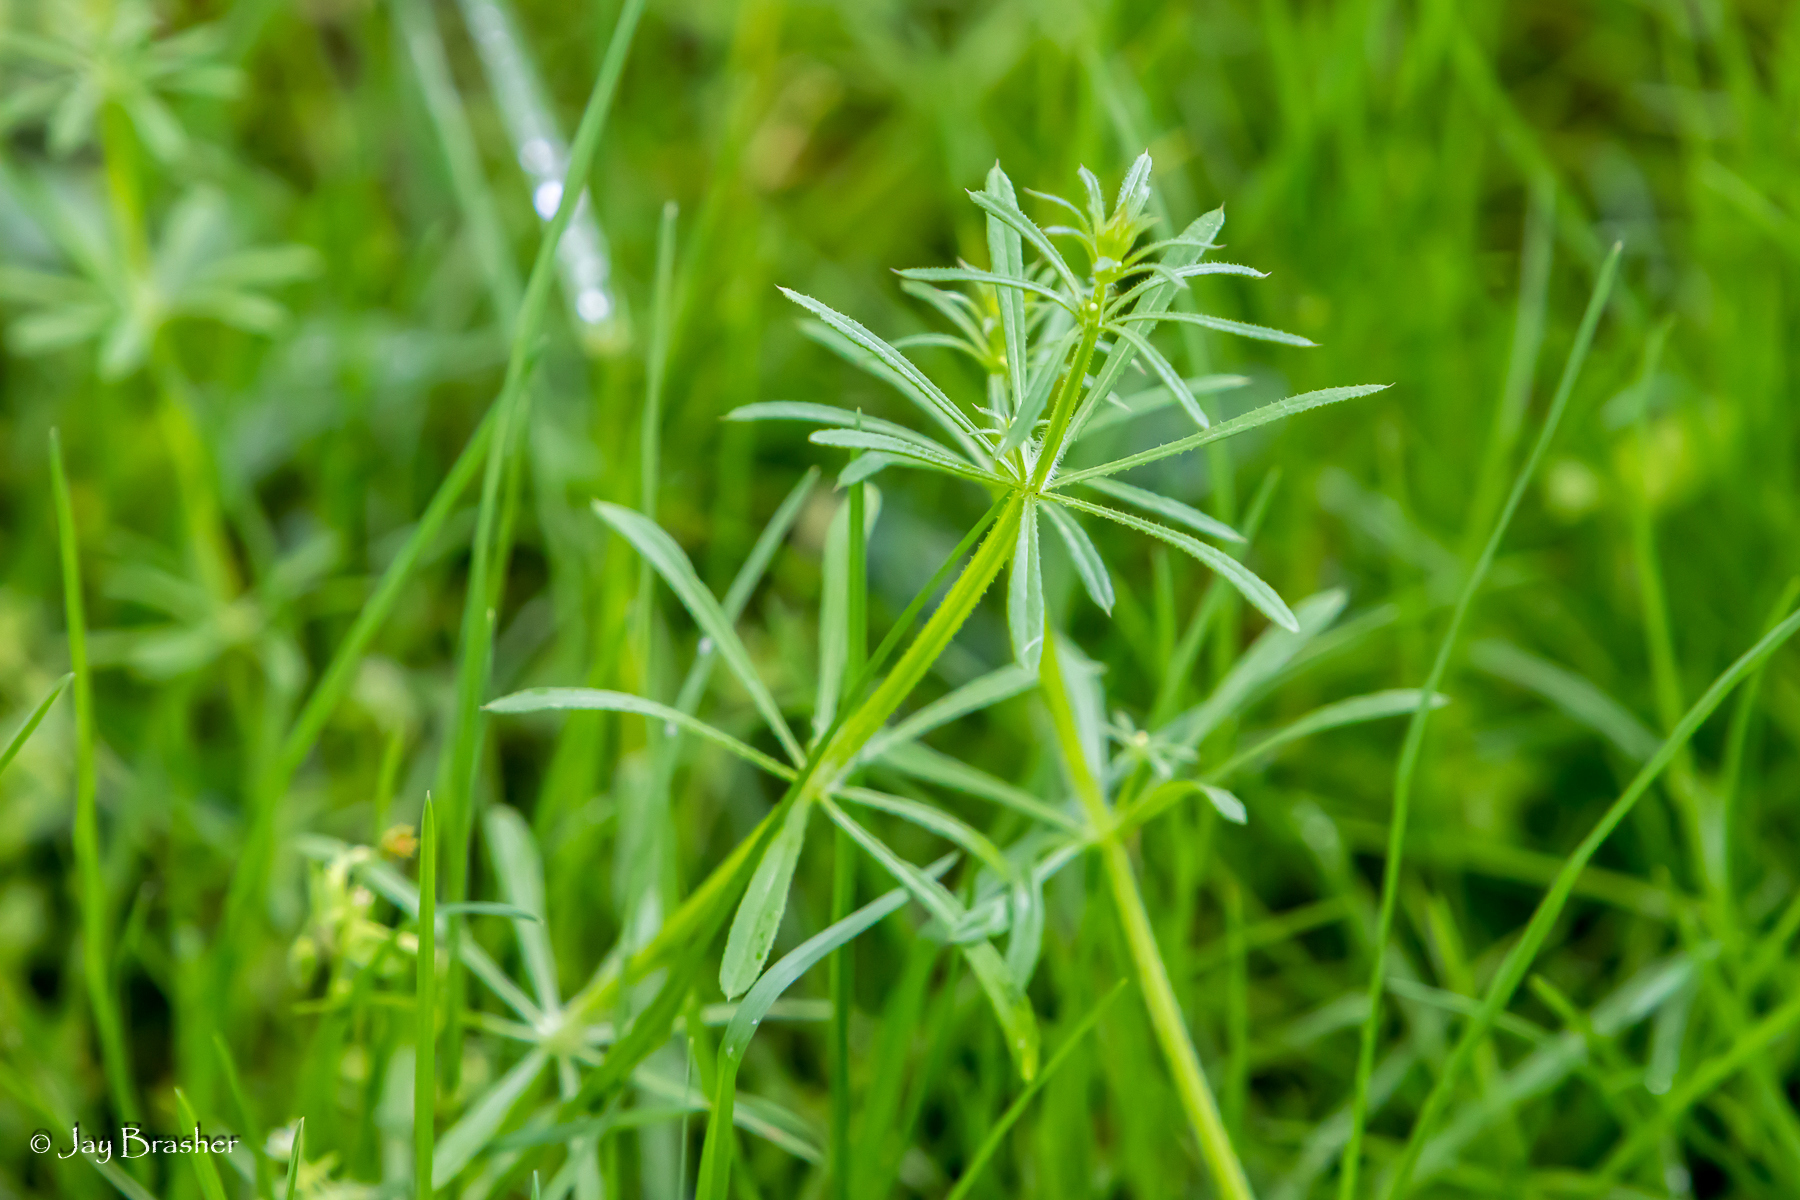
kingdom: Plantae
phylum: Tracheophyta
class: Magnoliopsida
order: Gentianales
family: Rubiaceae
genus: Galium
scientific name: Galium aparine
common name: Cleavers
